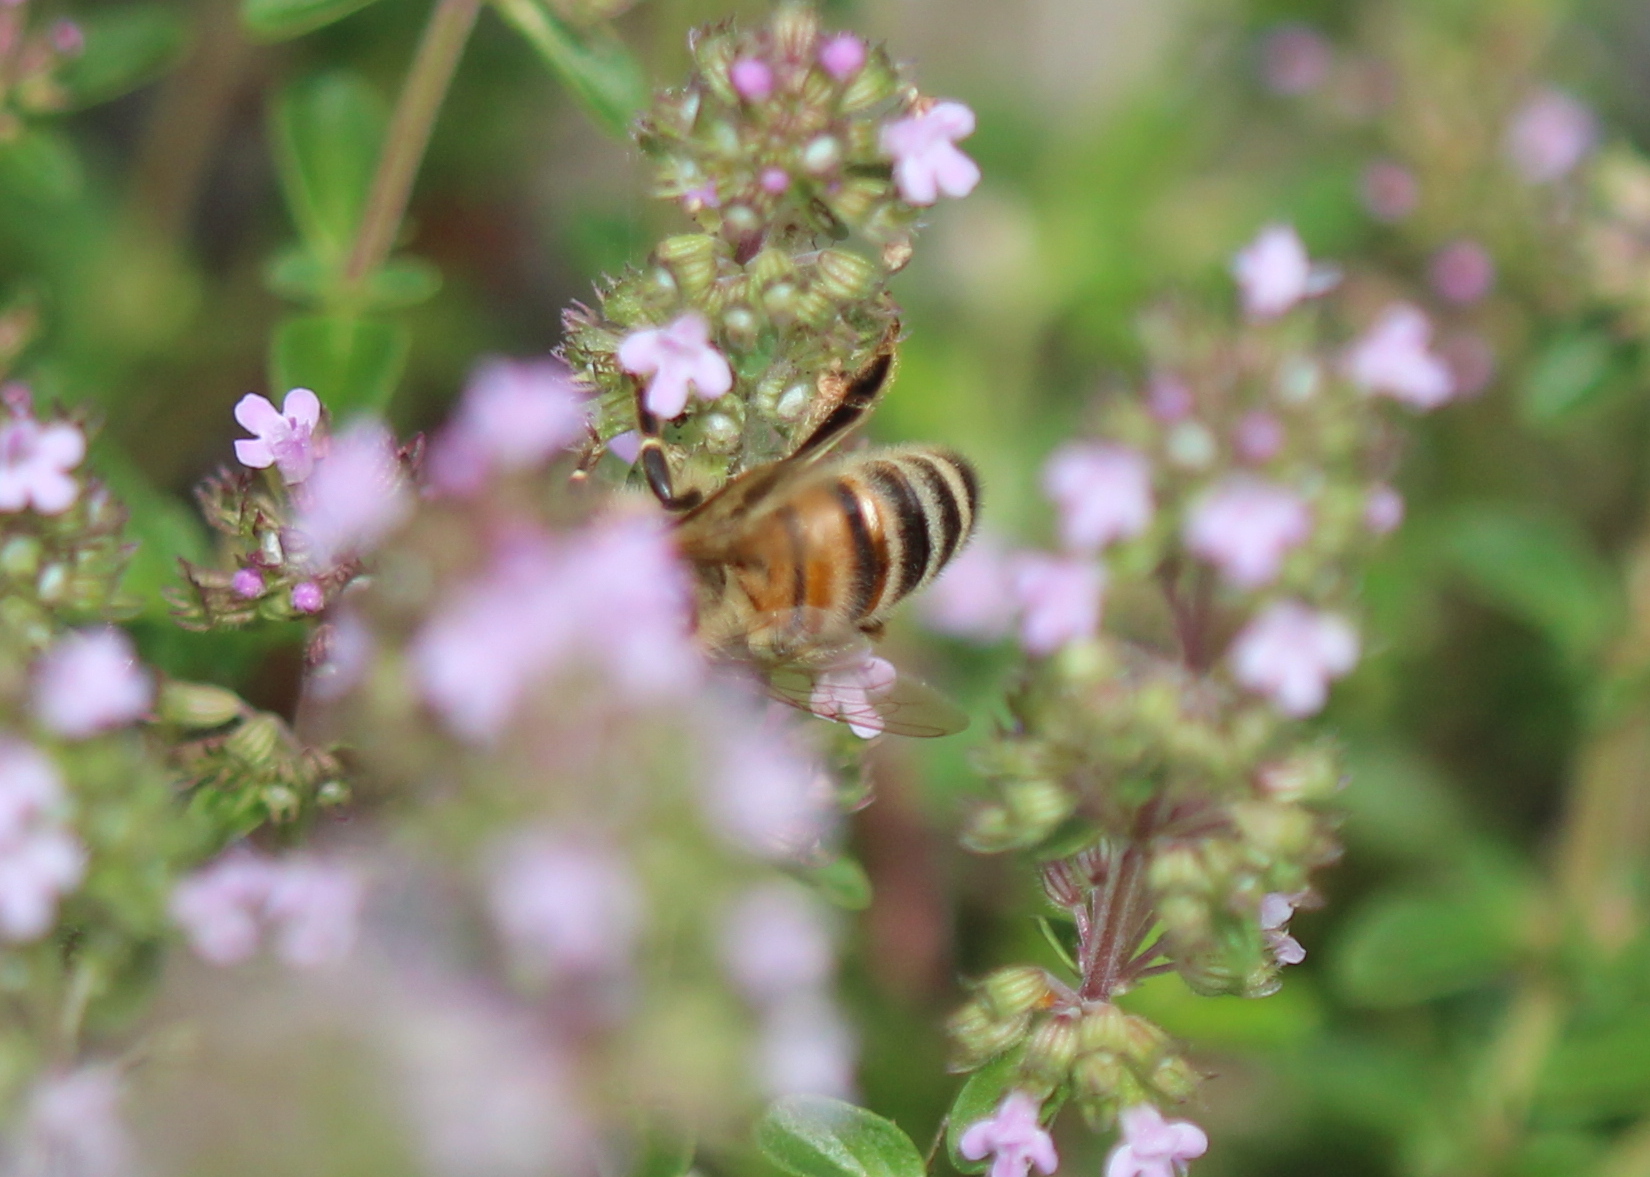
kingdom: Animalia
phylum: Arthropoda
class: Insecta
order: Hymenoptera
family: Apidae
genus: Apis
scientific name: Apis mellifera
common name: Honey bee
